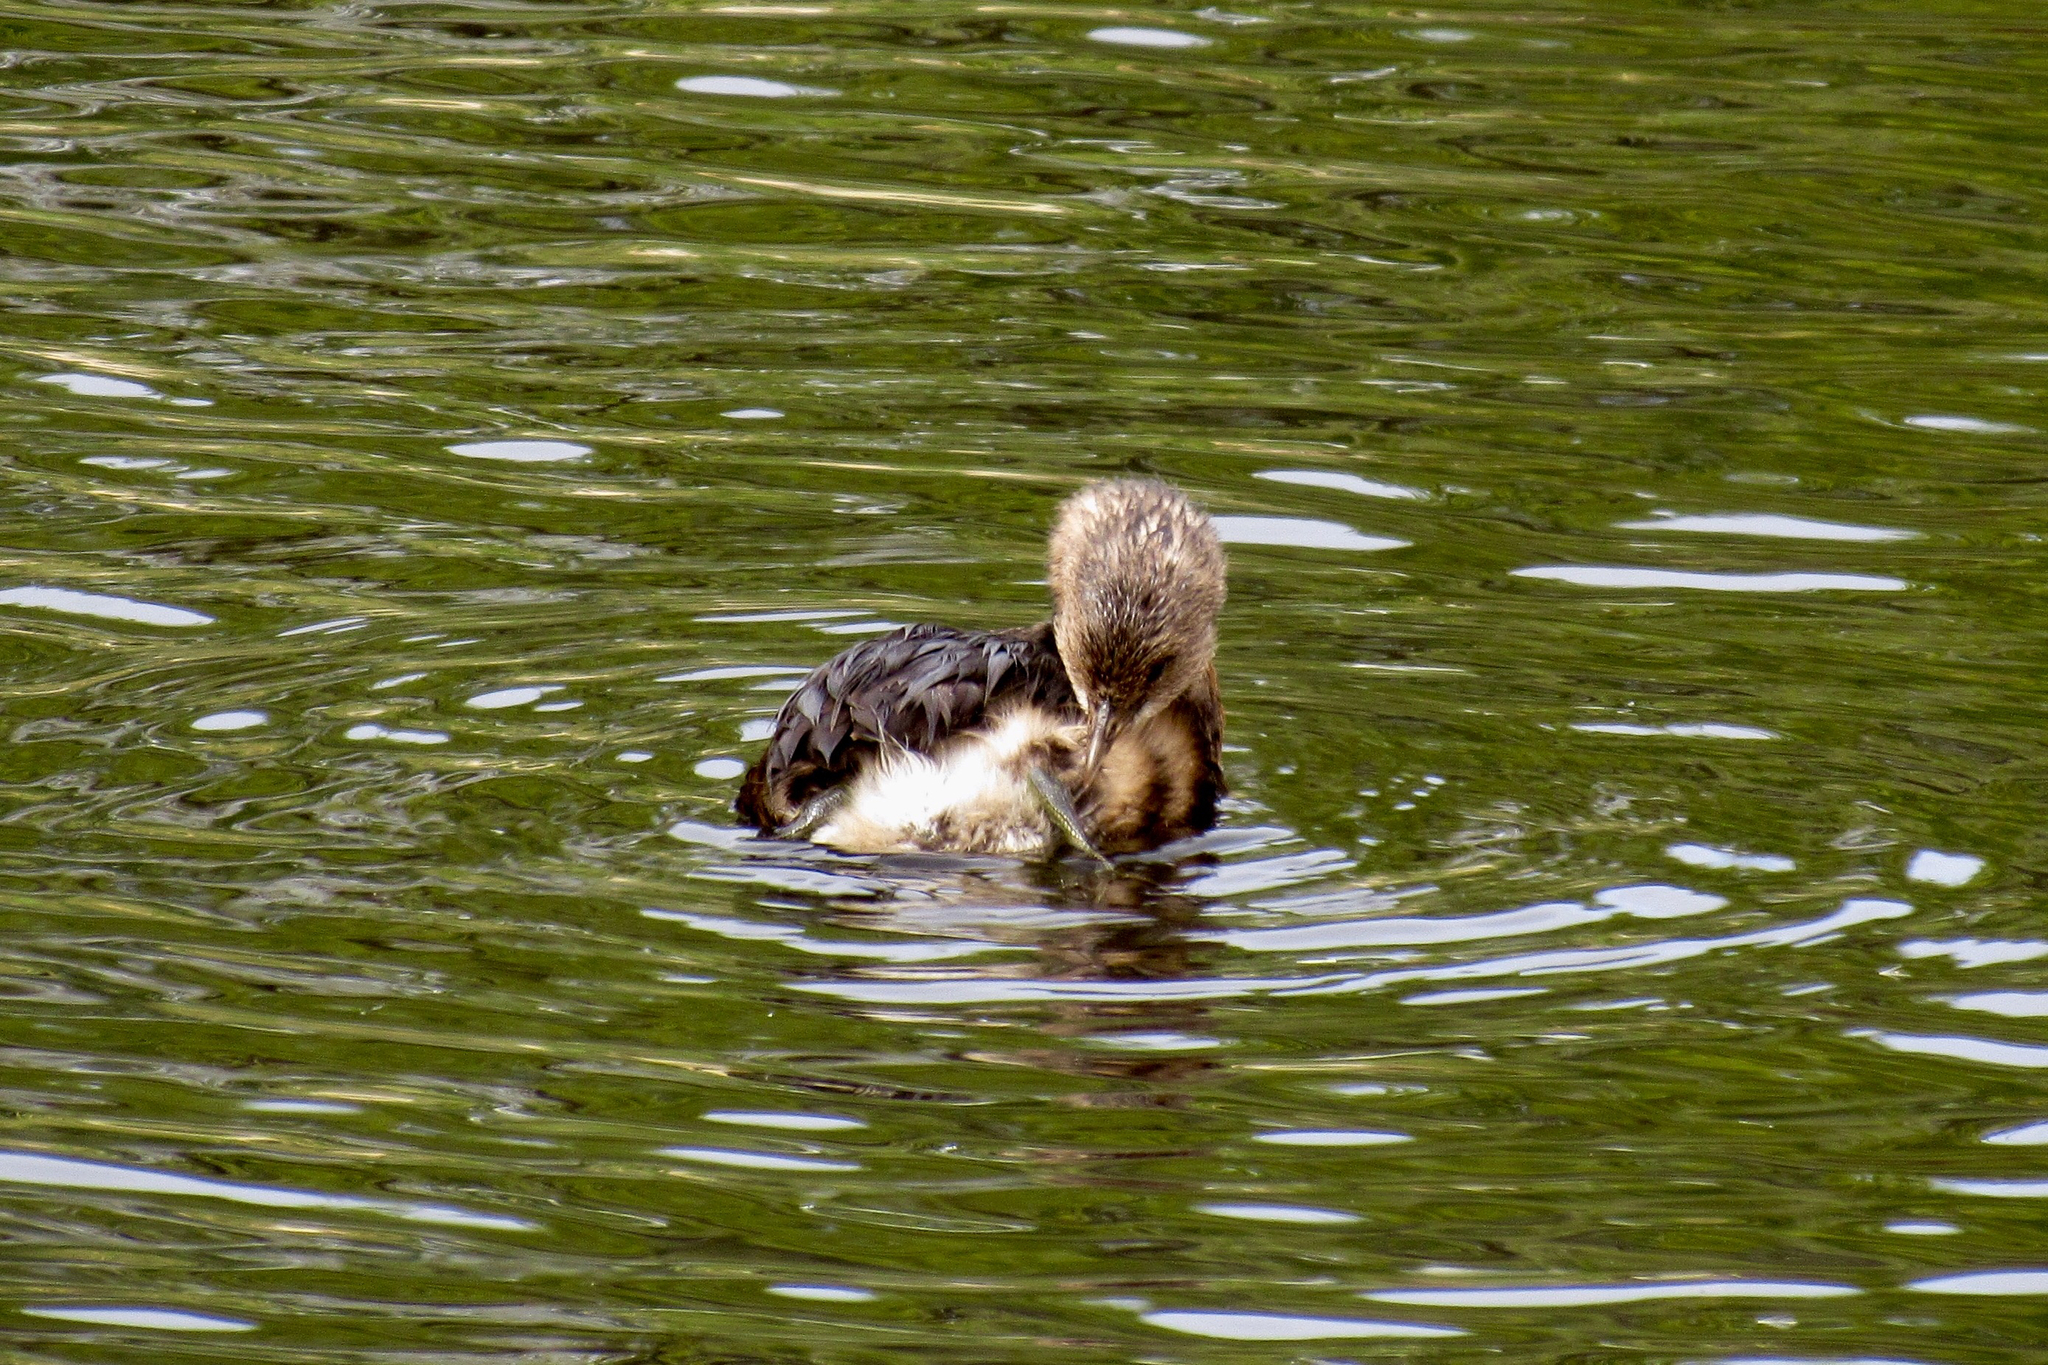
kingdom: Animalia
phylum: Chordata
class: Aves
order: Podicipediformes
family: Podicipedidae
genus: Podilymbus
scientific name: Podilymbus podiceps
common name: Pied-billed grebe
